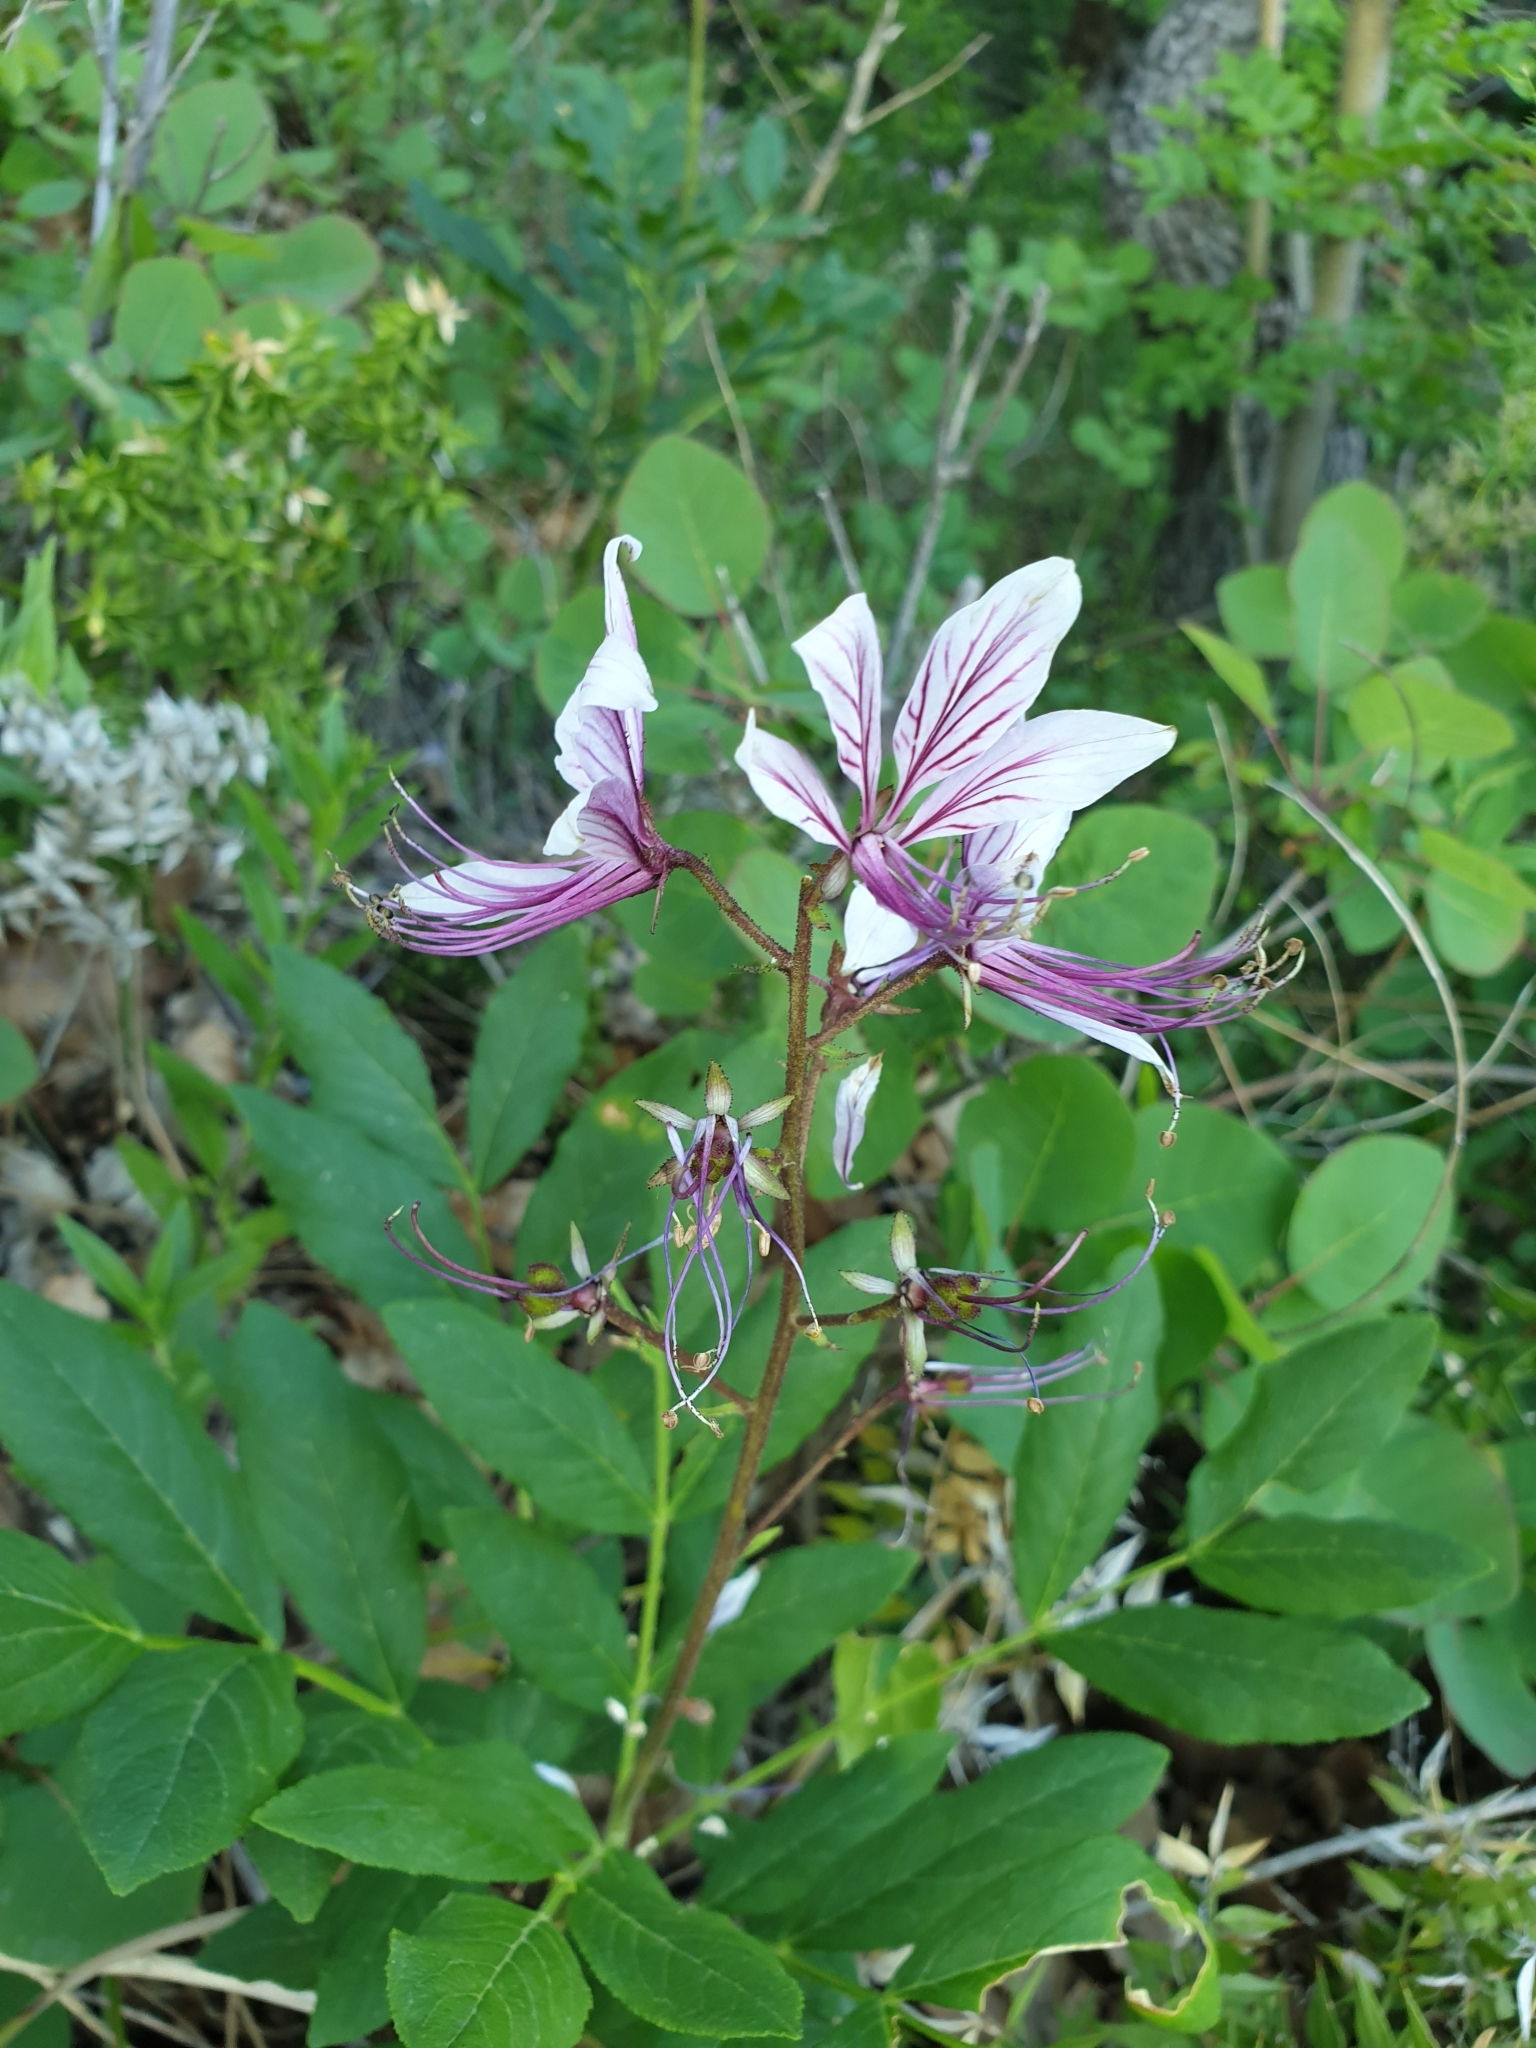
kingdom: Plantae
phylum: Tracheophyta
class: Magnoliopsida
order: Sapindales
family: Rutaceae
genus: Dictamnus
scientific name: Dictamnus albus
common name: Gasplant
